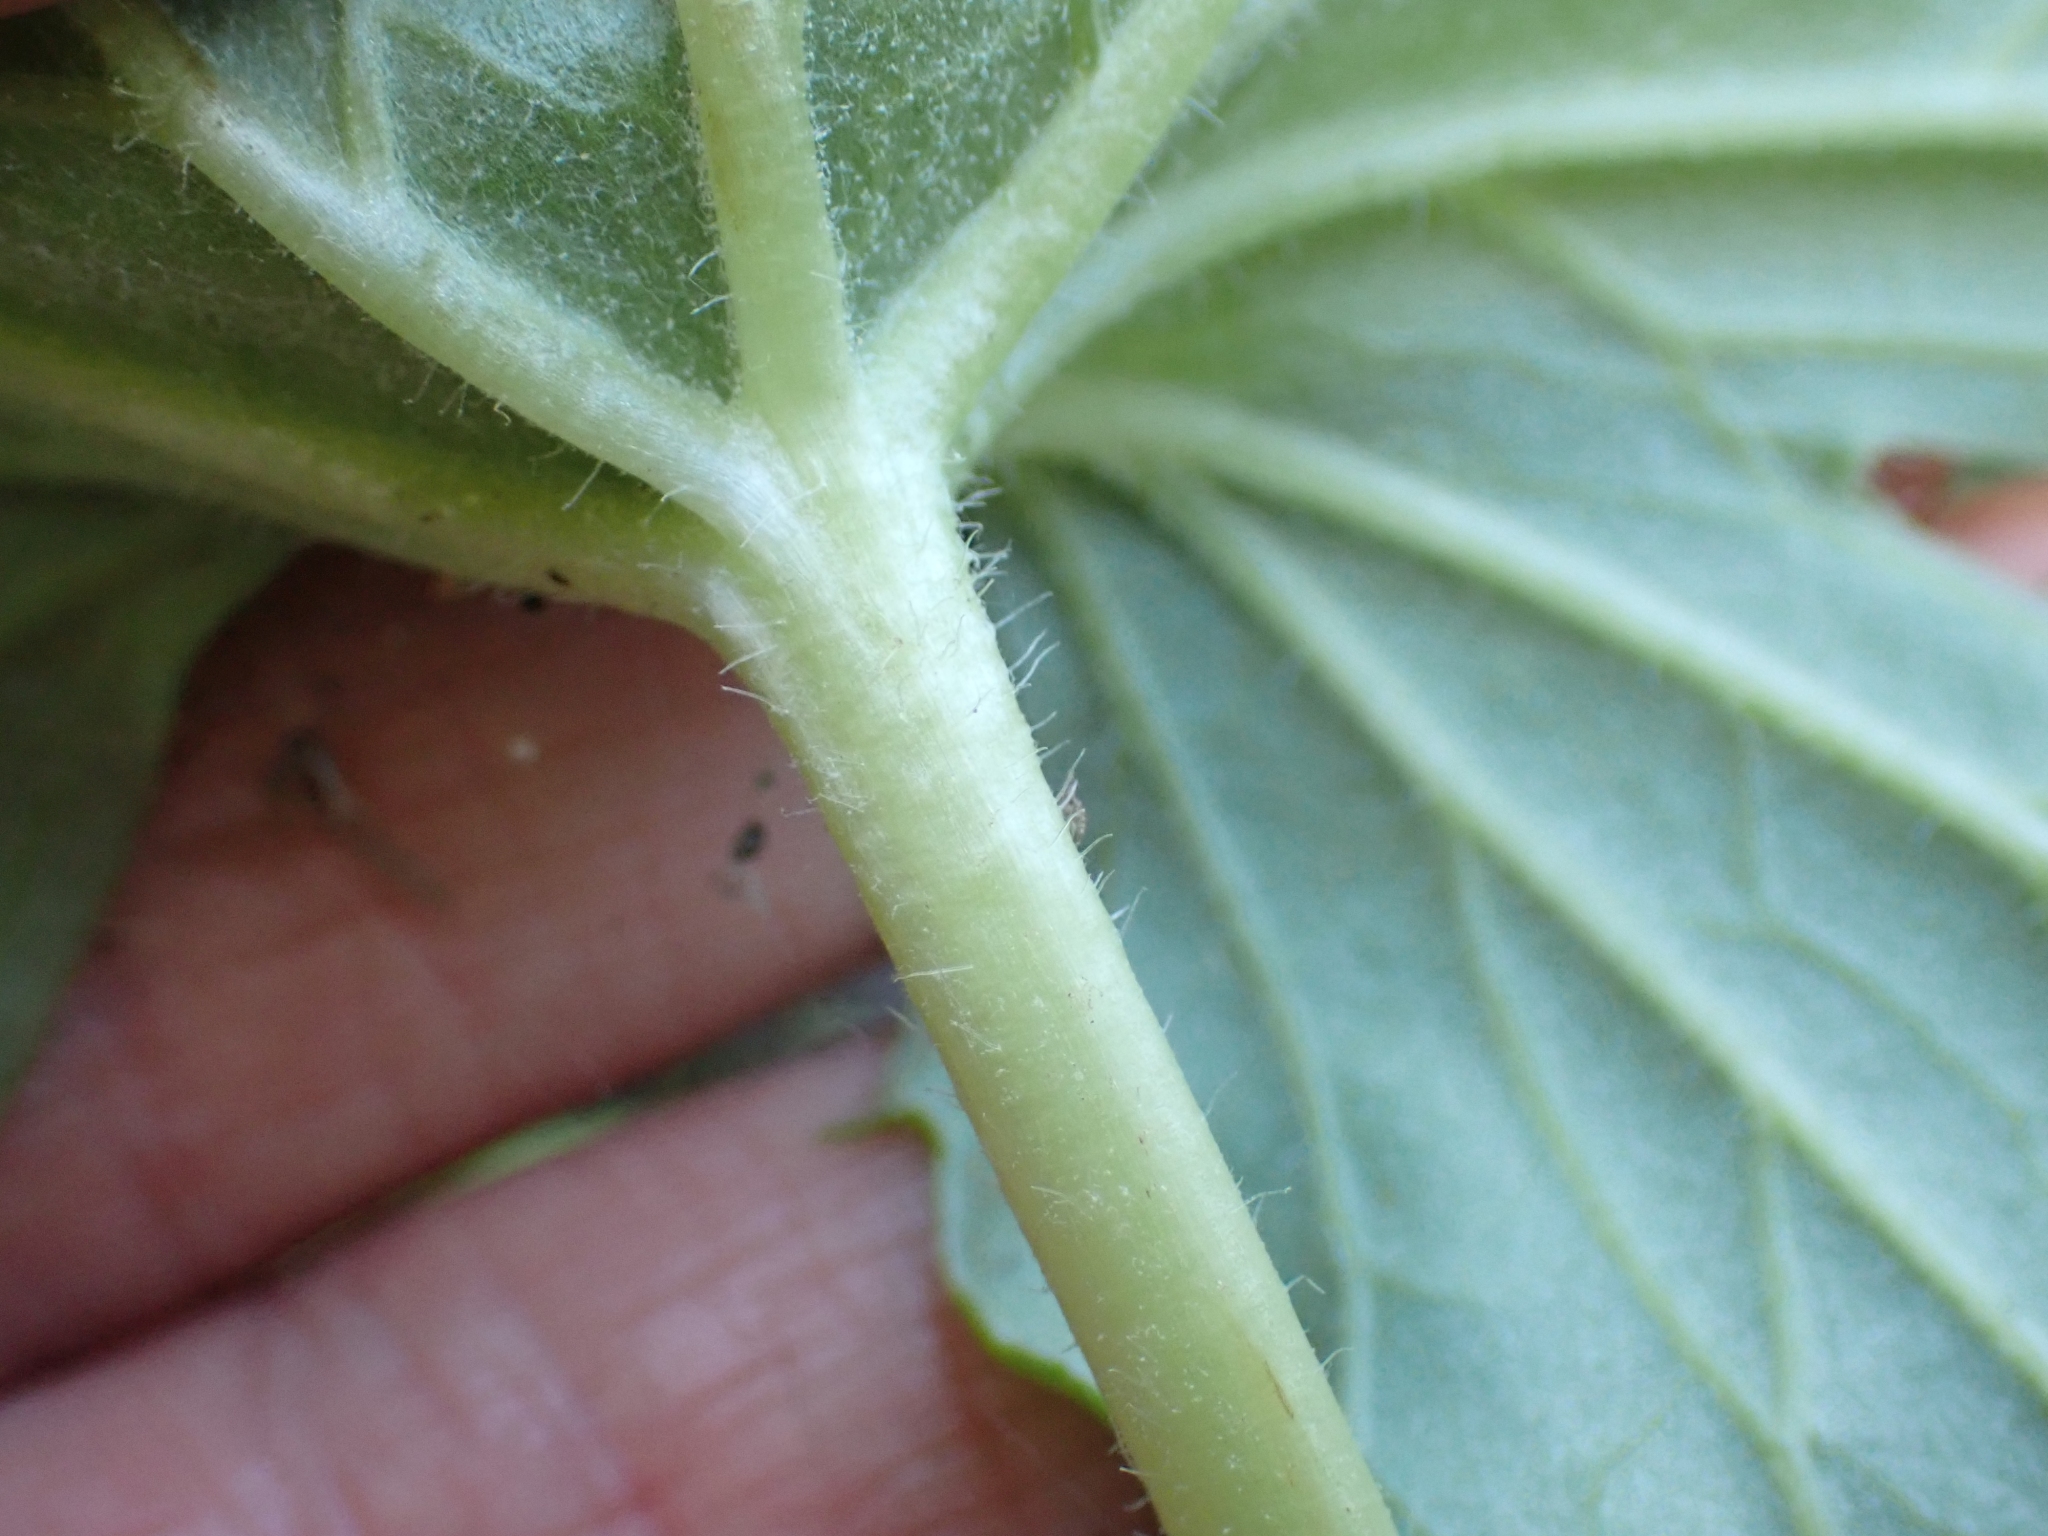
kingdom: Plantae
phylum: Tracheophyta
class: Magnoliopsida
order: Asterales
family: Asteraceae
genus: Petasites
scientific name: Petasites frigidus
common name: Arctic butterbur
